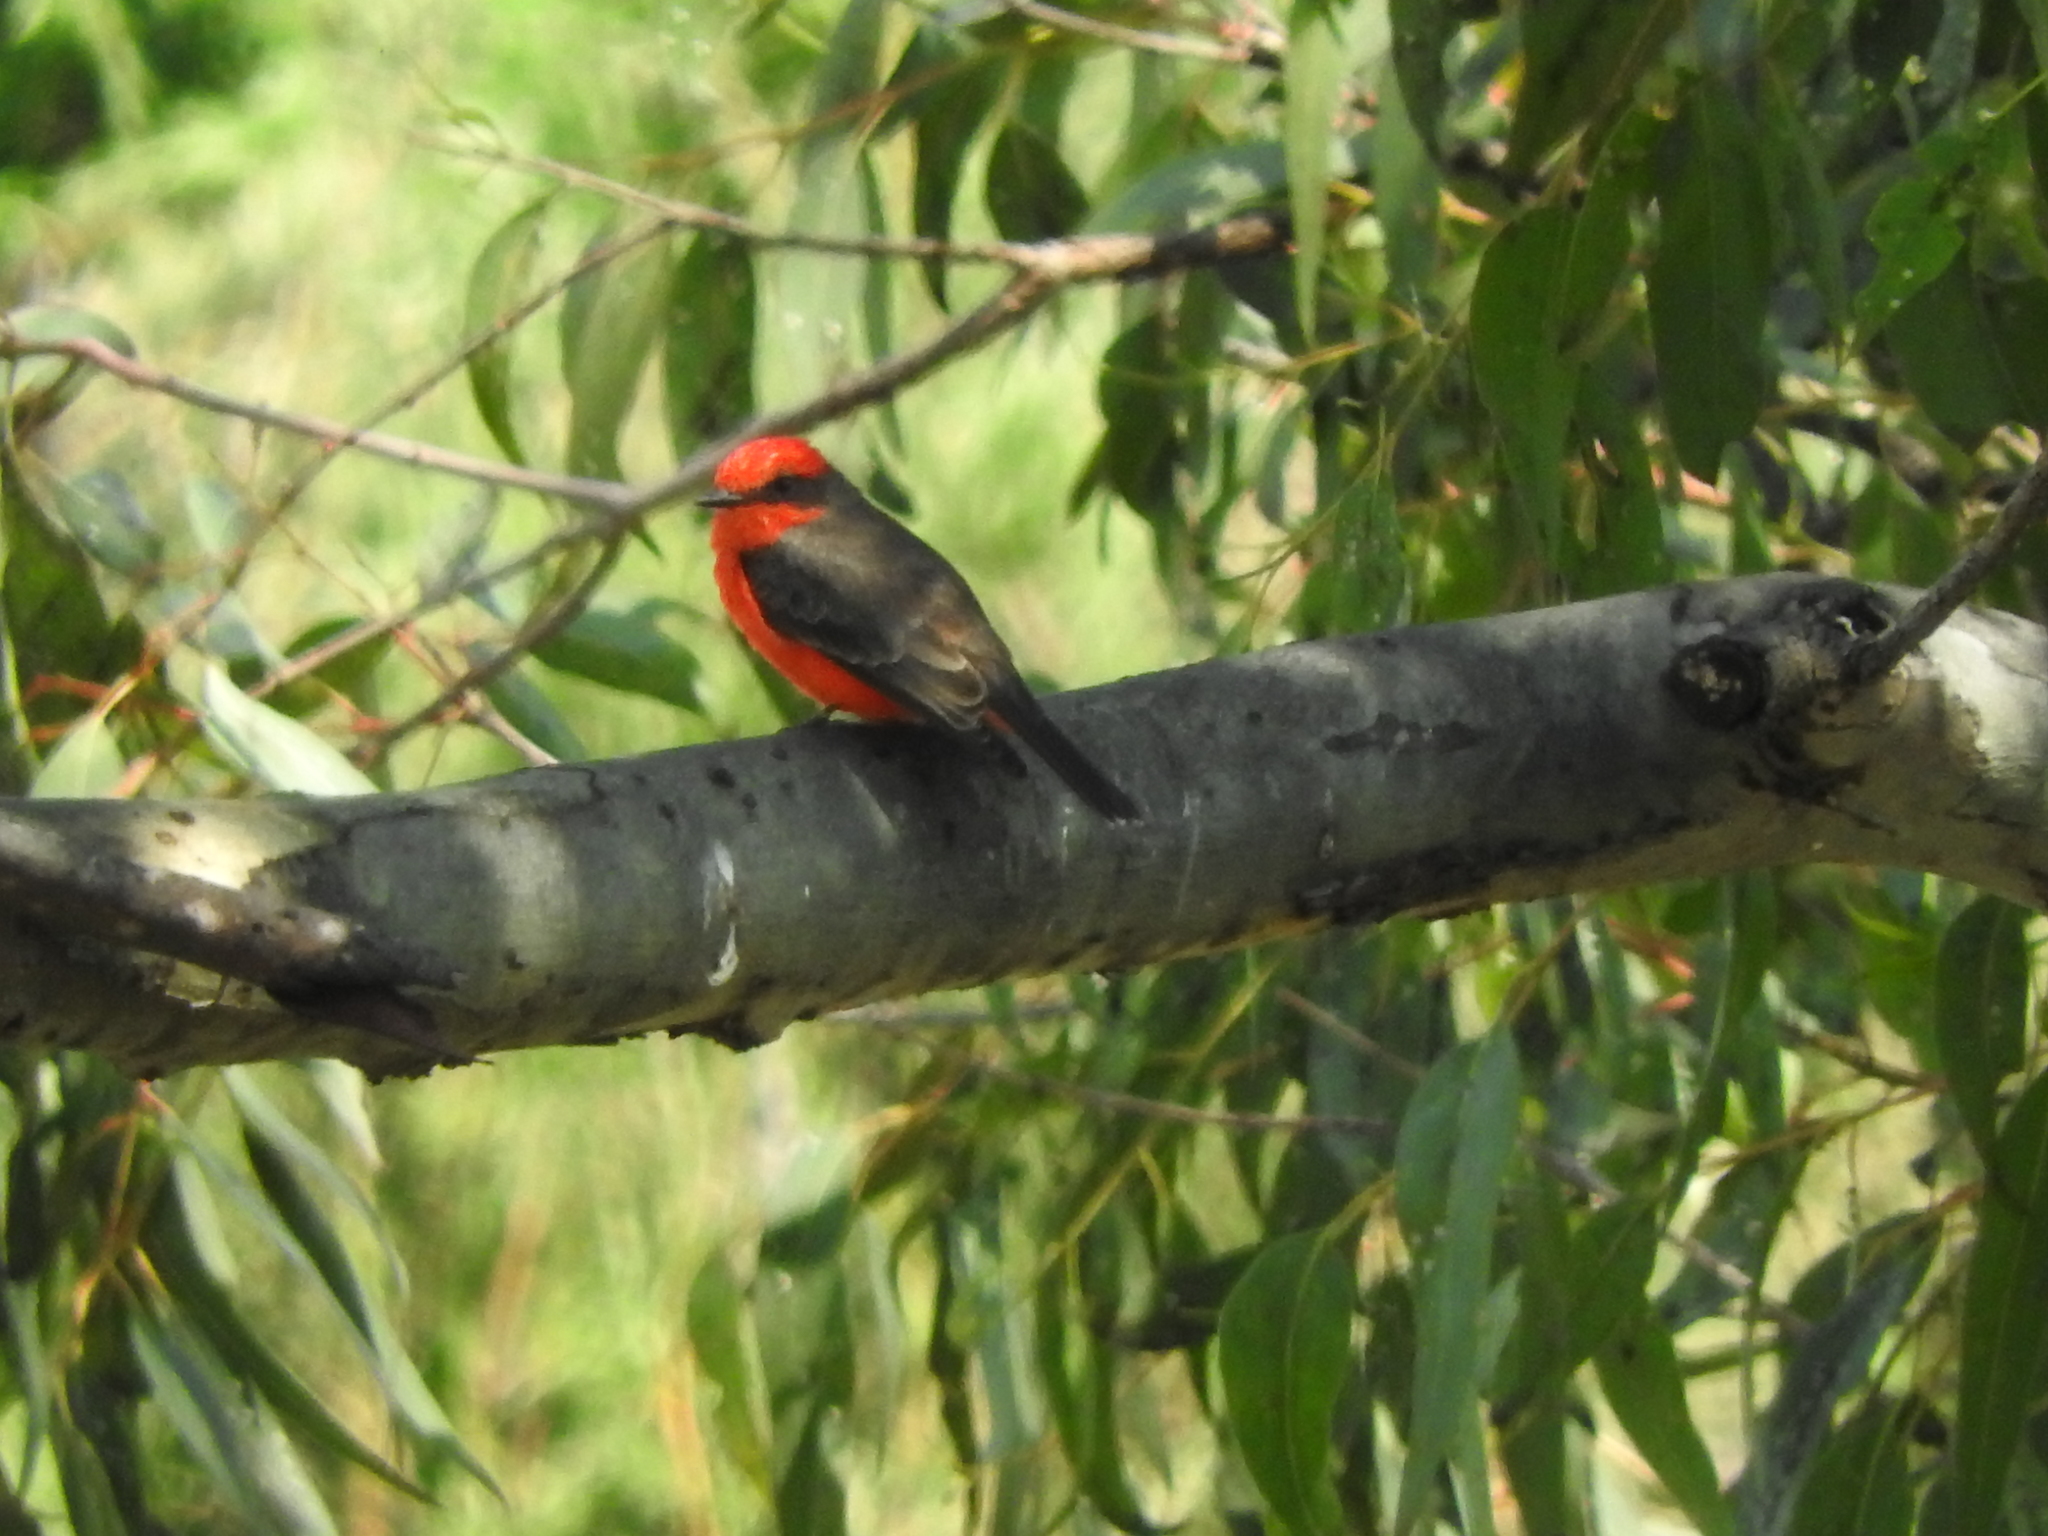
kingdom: Animalia
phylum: Chordata
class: Aves
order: Passeriformes
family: Tyrannidae
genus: Pyrocephalus
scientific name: Pyrocephalus rubinus
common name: Vermilion flycatcher
